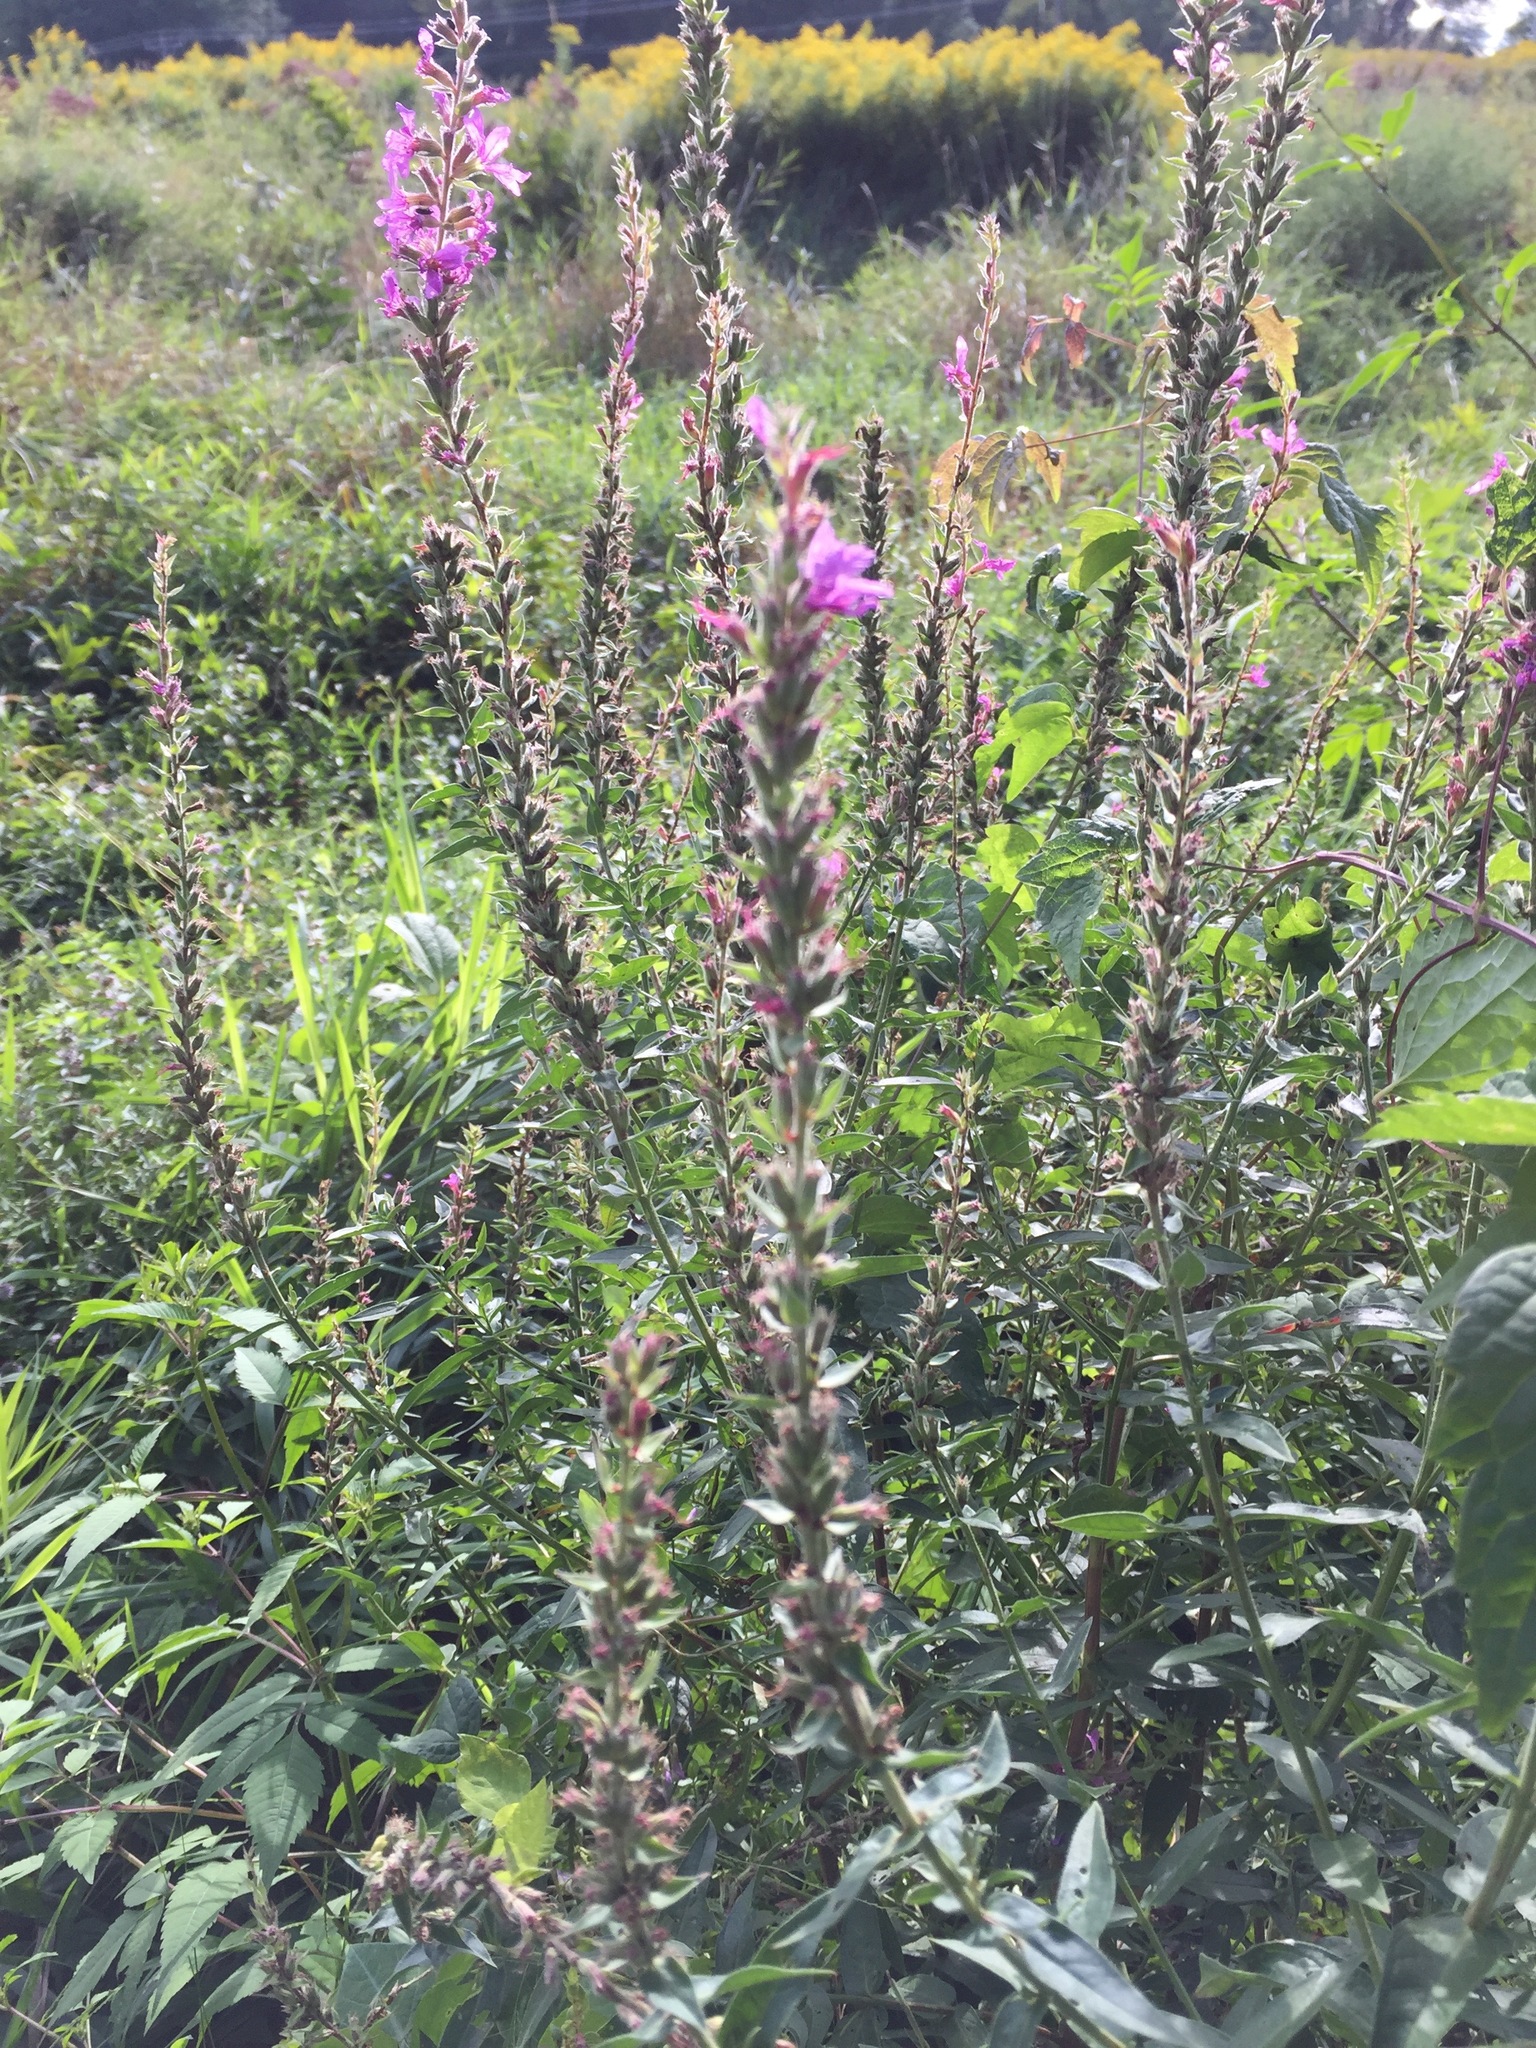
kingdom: Plantae
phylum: Tracheophyta
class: Magnoliopsida
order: Myrtales
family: Lythraceae
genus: Lythrum
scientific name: Lythrum salicaria
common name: Purple loosestrife
